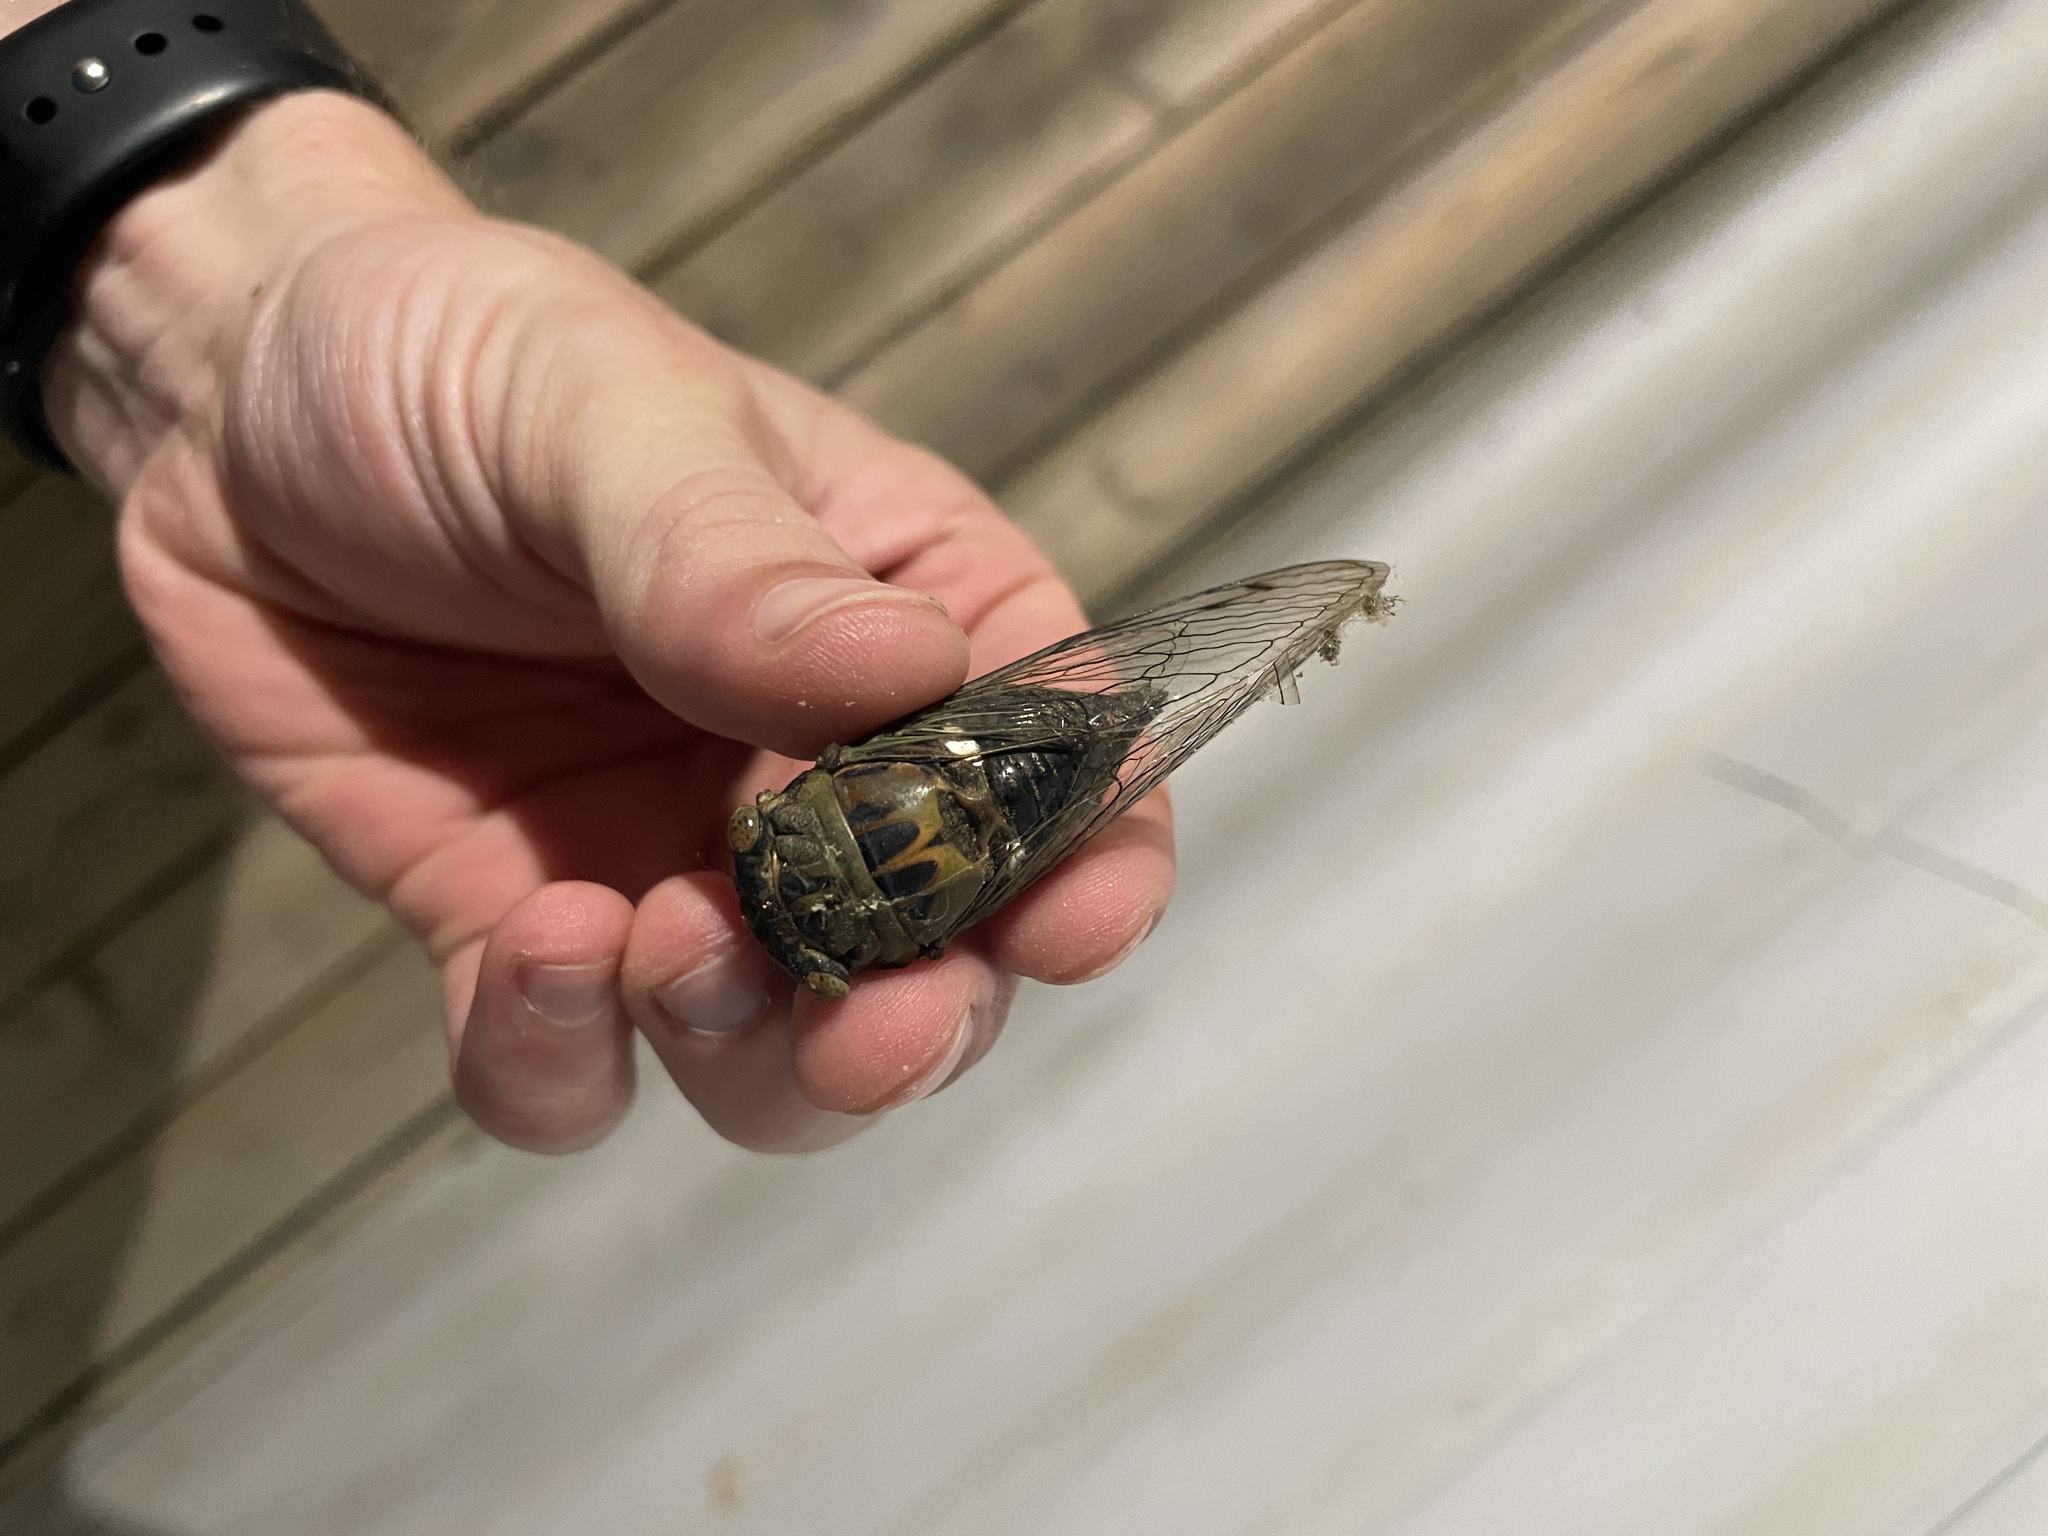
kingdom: Animalia
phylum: Arthropoda
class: Insecta
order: Hemiptera
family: Cicadidae
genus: Neotibicen
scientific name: Neotibicen pruinosus
